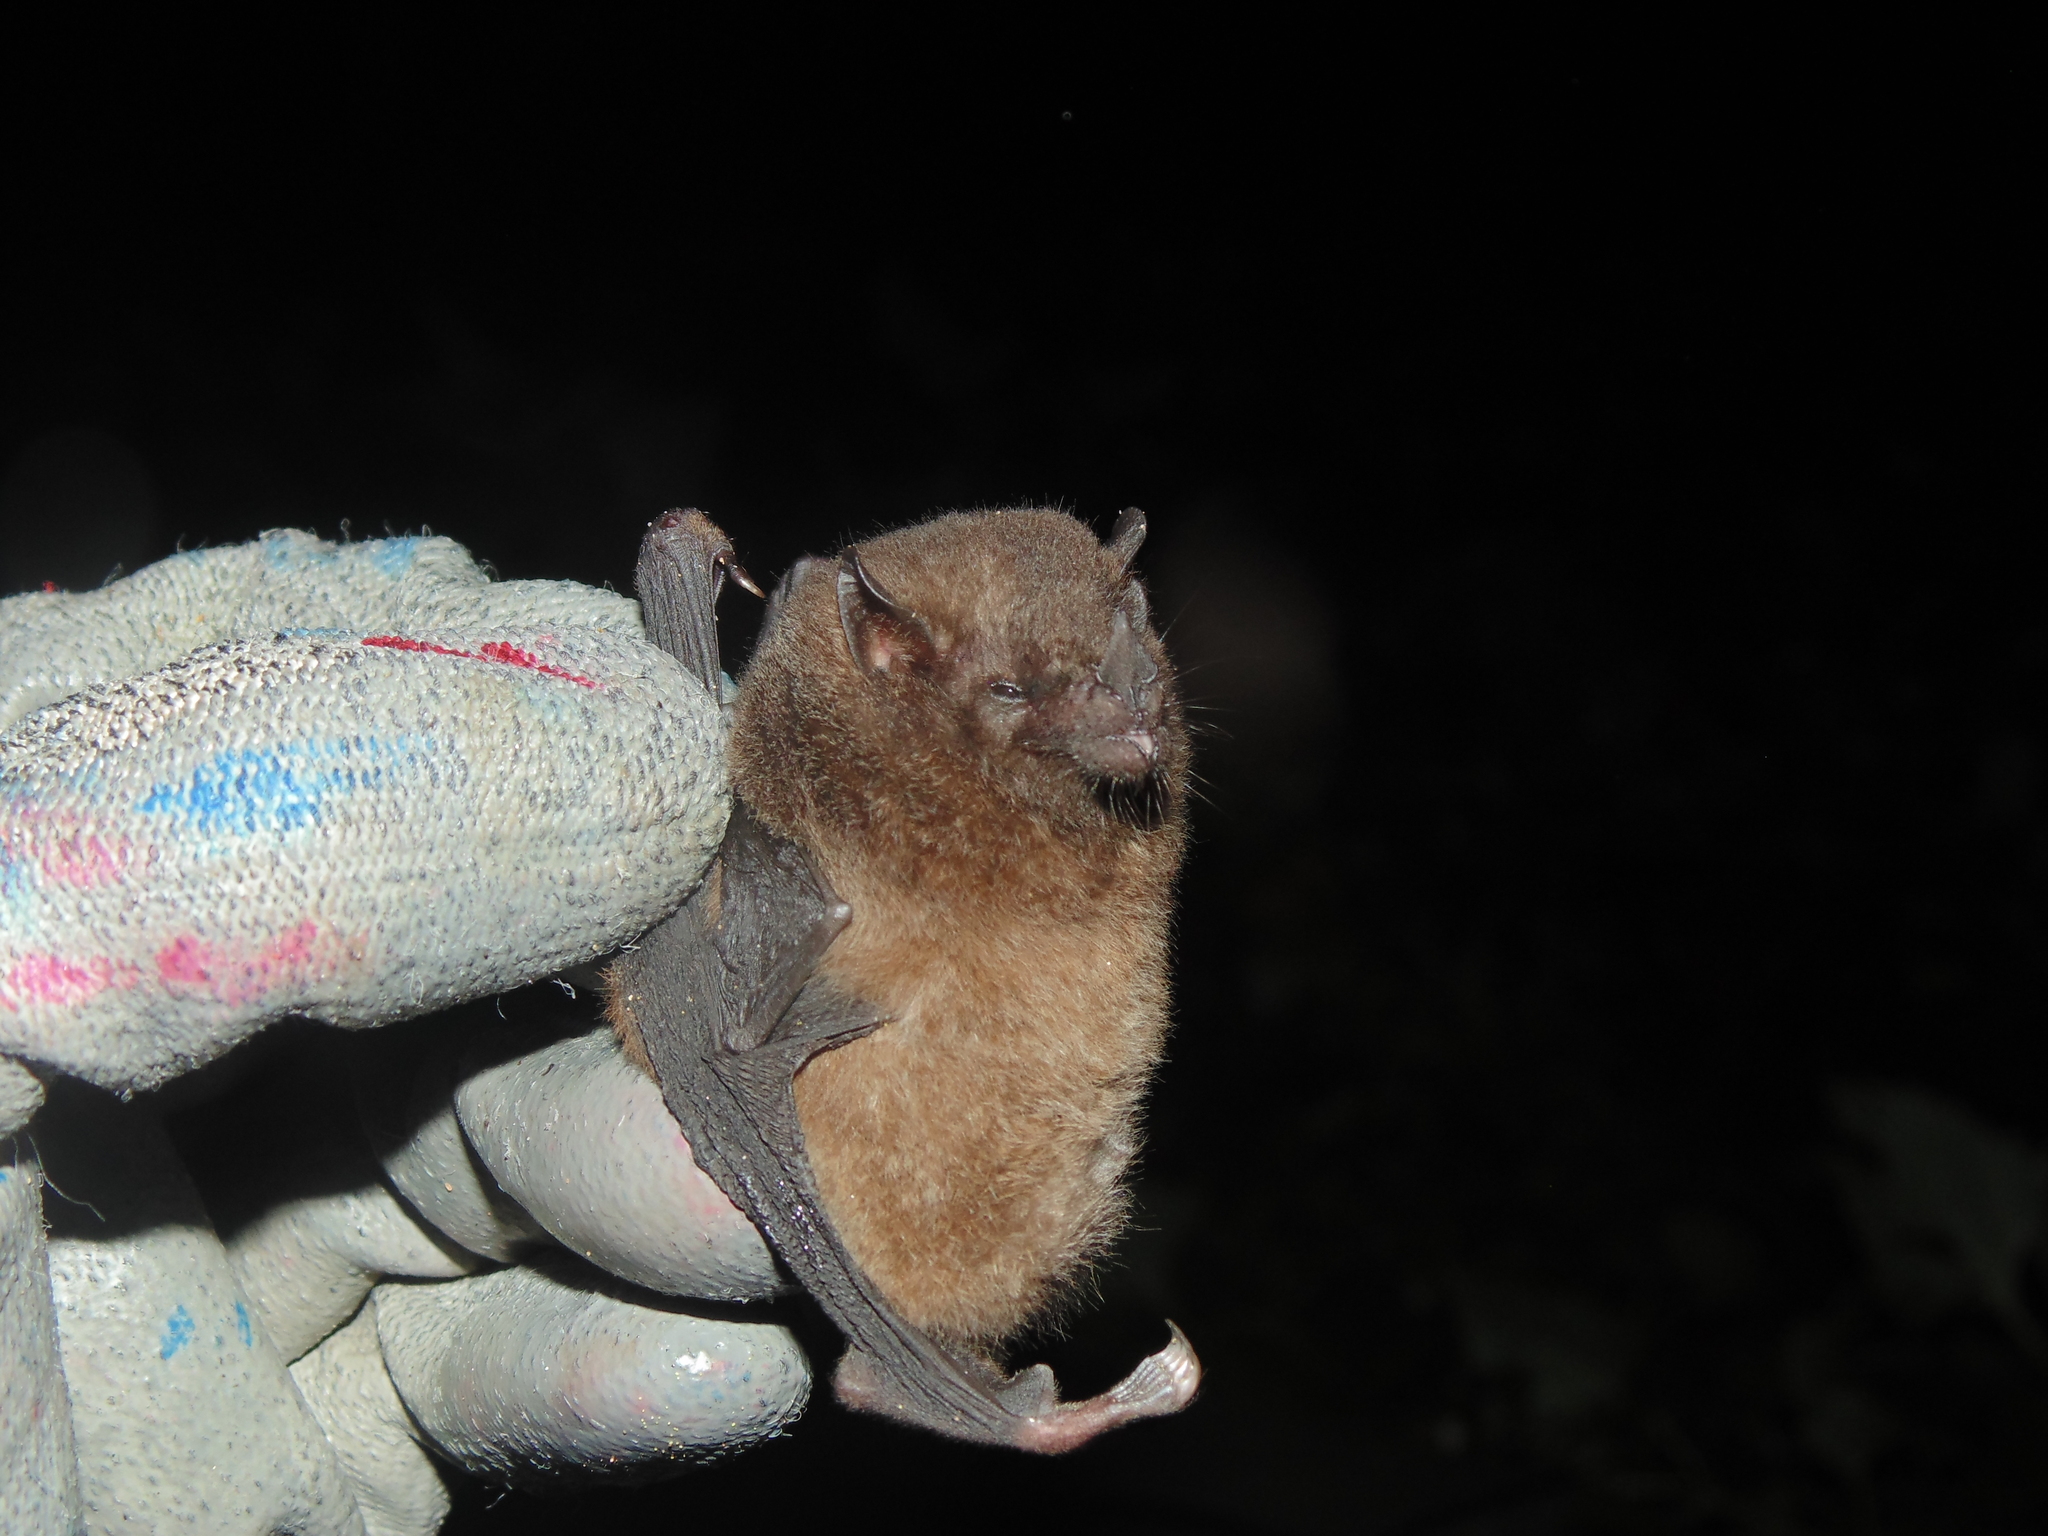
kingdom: Animalia
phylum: Chordata
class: Mammalia
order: Chiroptera
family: Phyllostomidae
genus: Anoura
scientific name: Anoura caudifer
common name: Tailed tailless bat
